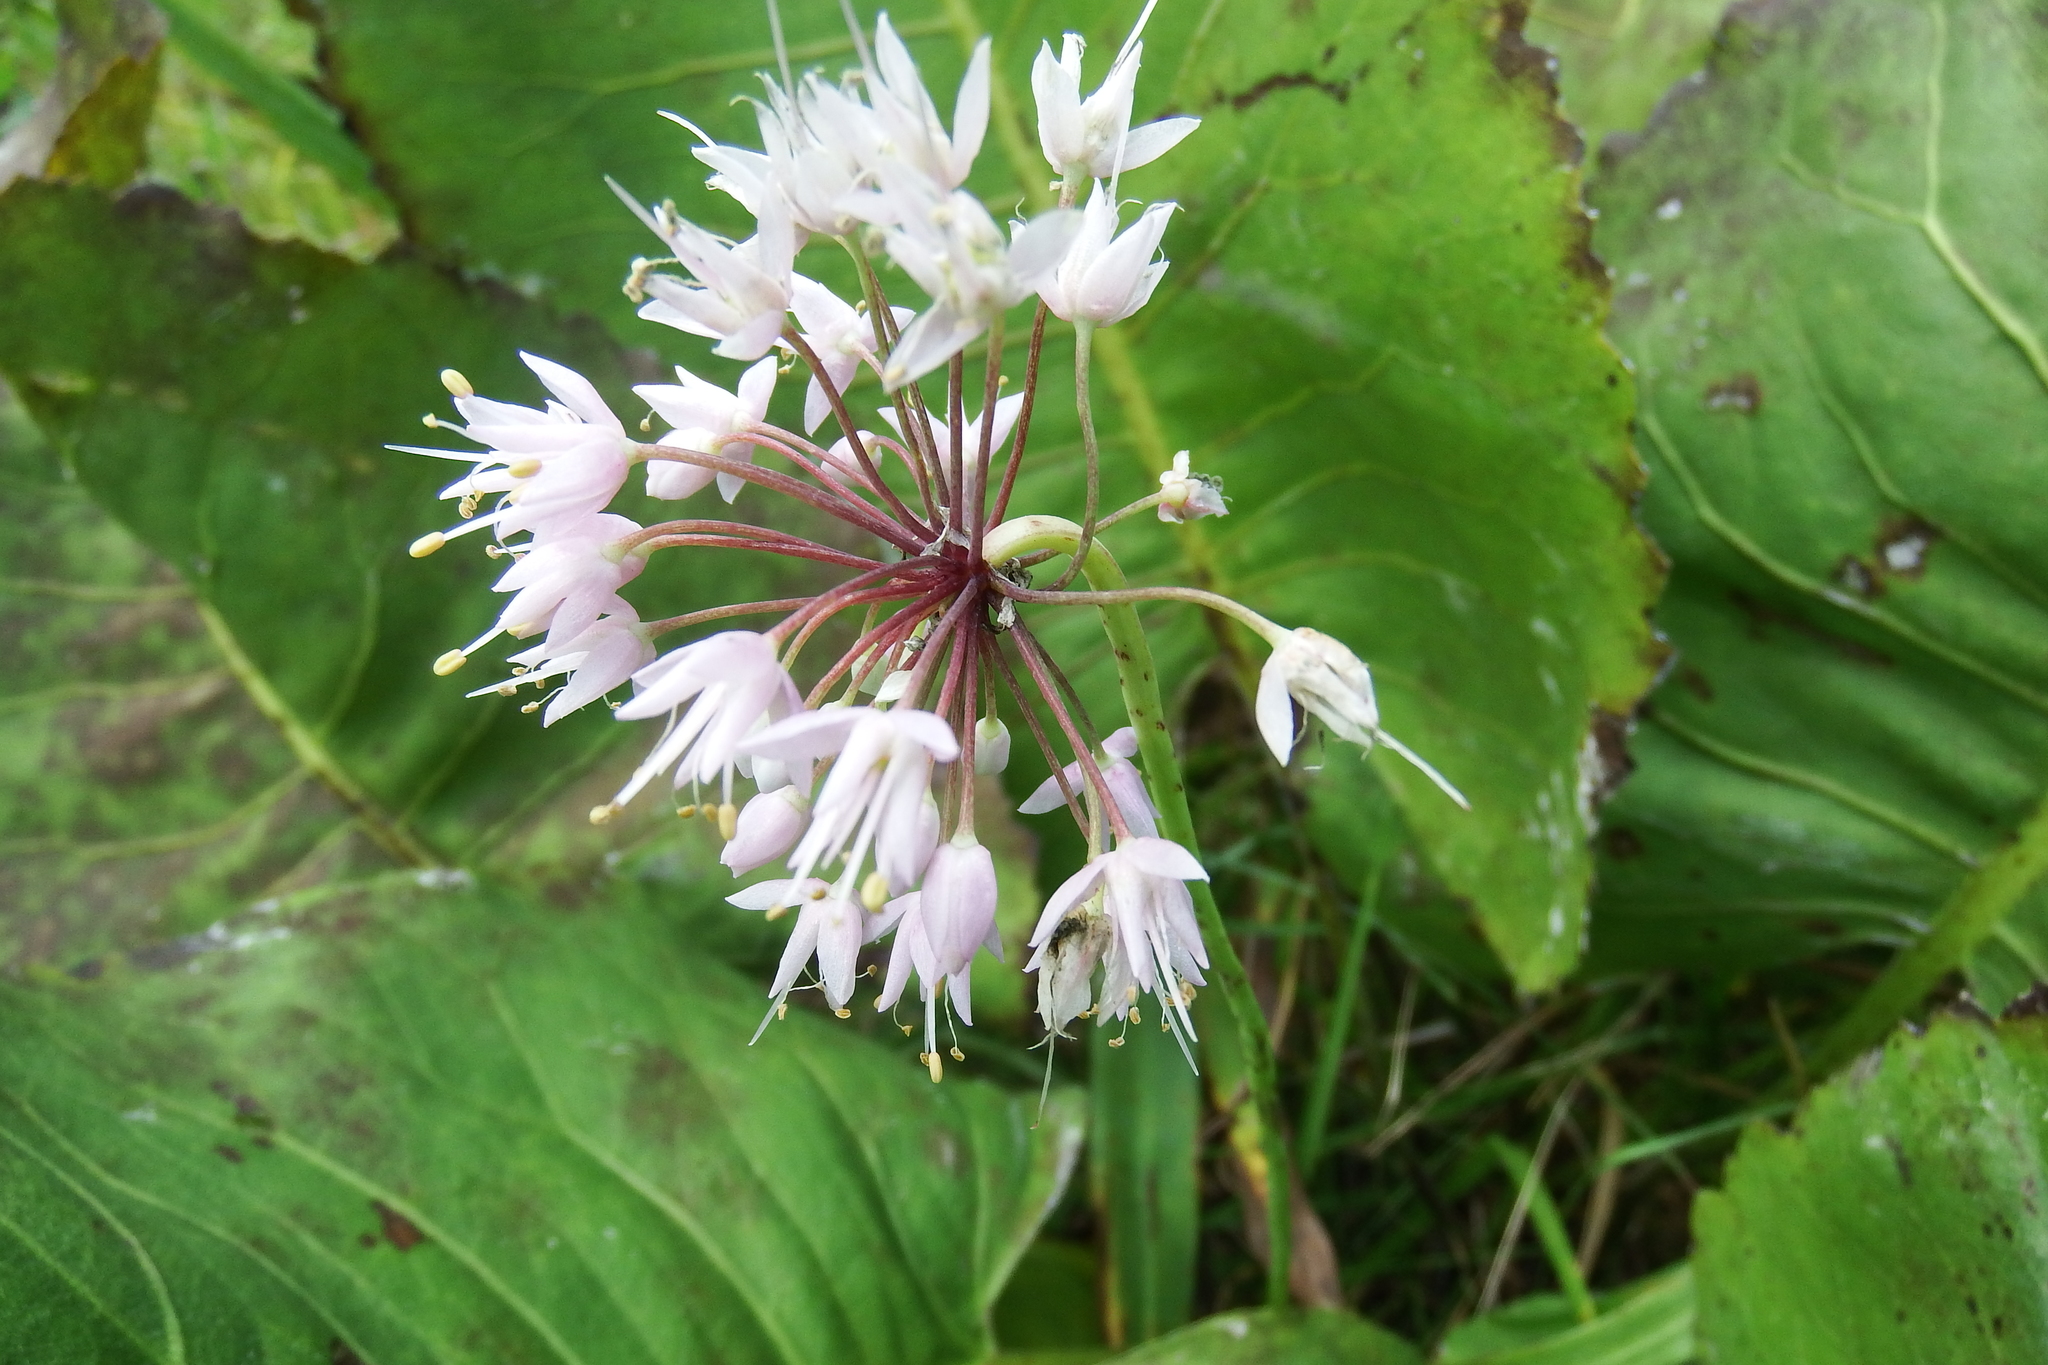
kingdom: Plantae
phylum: Tracheophyta
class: Liliopsida
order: Asparagales
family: Amaryllidaceae
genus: Allium
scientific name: Allium cernuum
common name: Nodding onion
